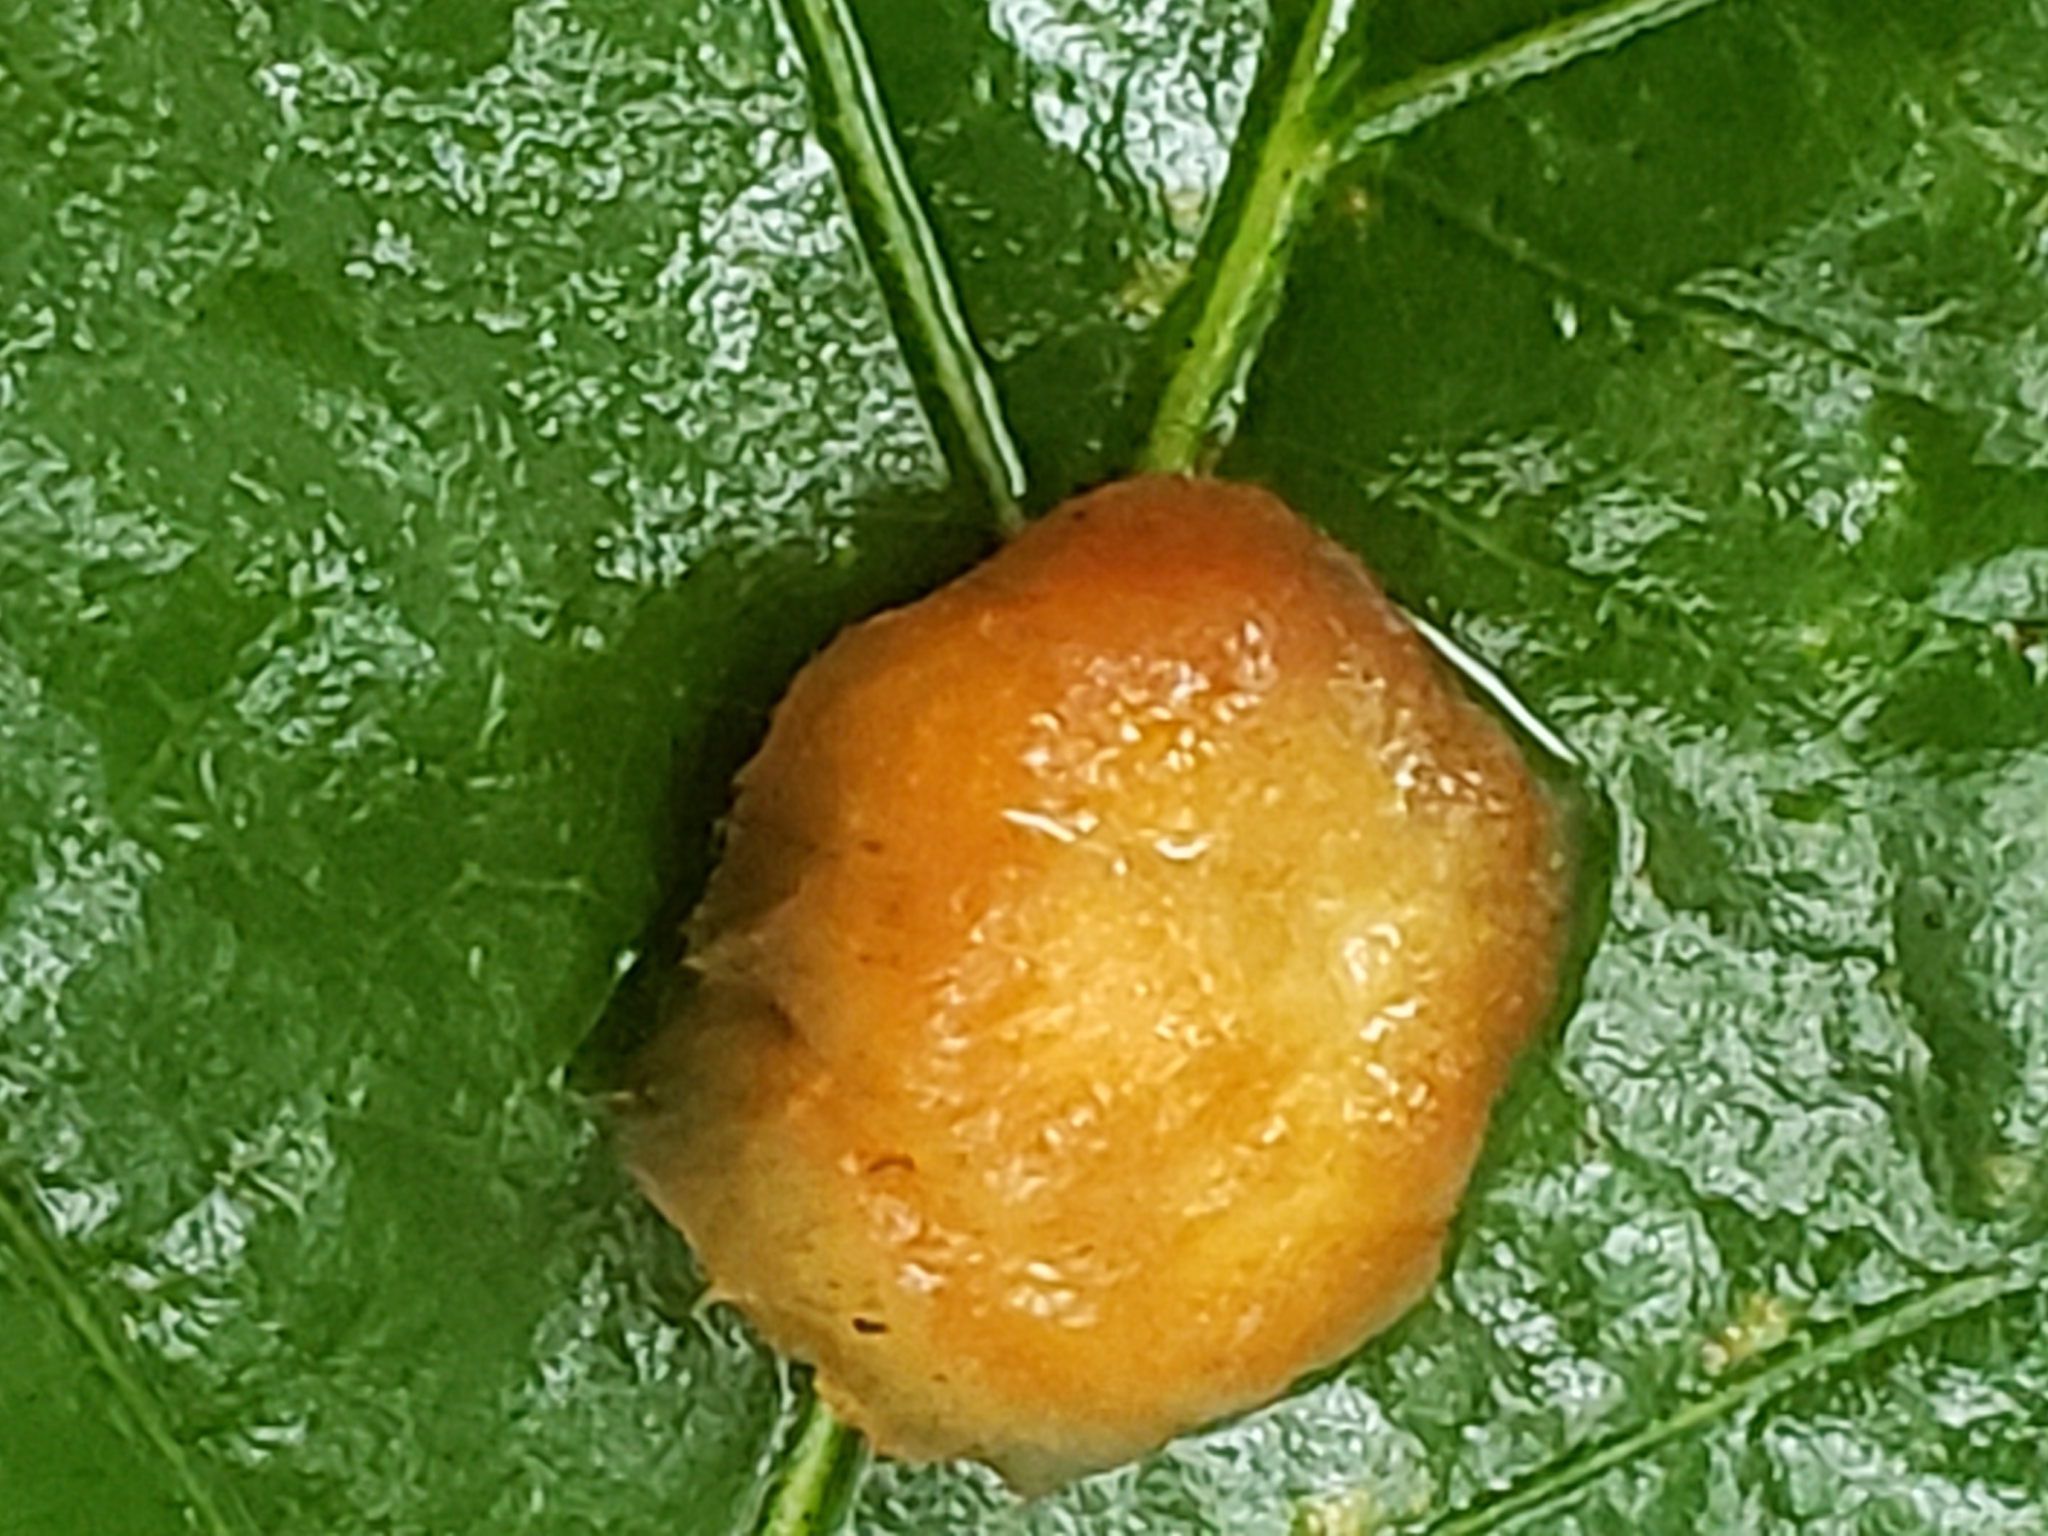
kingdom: Animalia
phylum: Arthropoda
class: Insecta
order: Hymenoptera
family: Cynipidae
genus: Andricus
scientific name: Andricus quercusflocci
